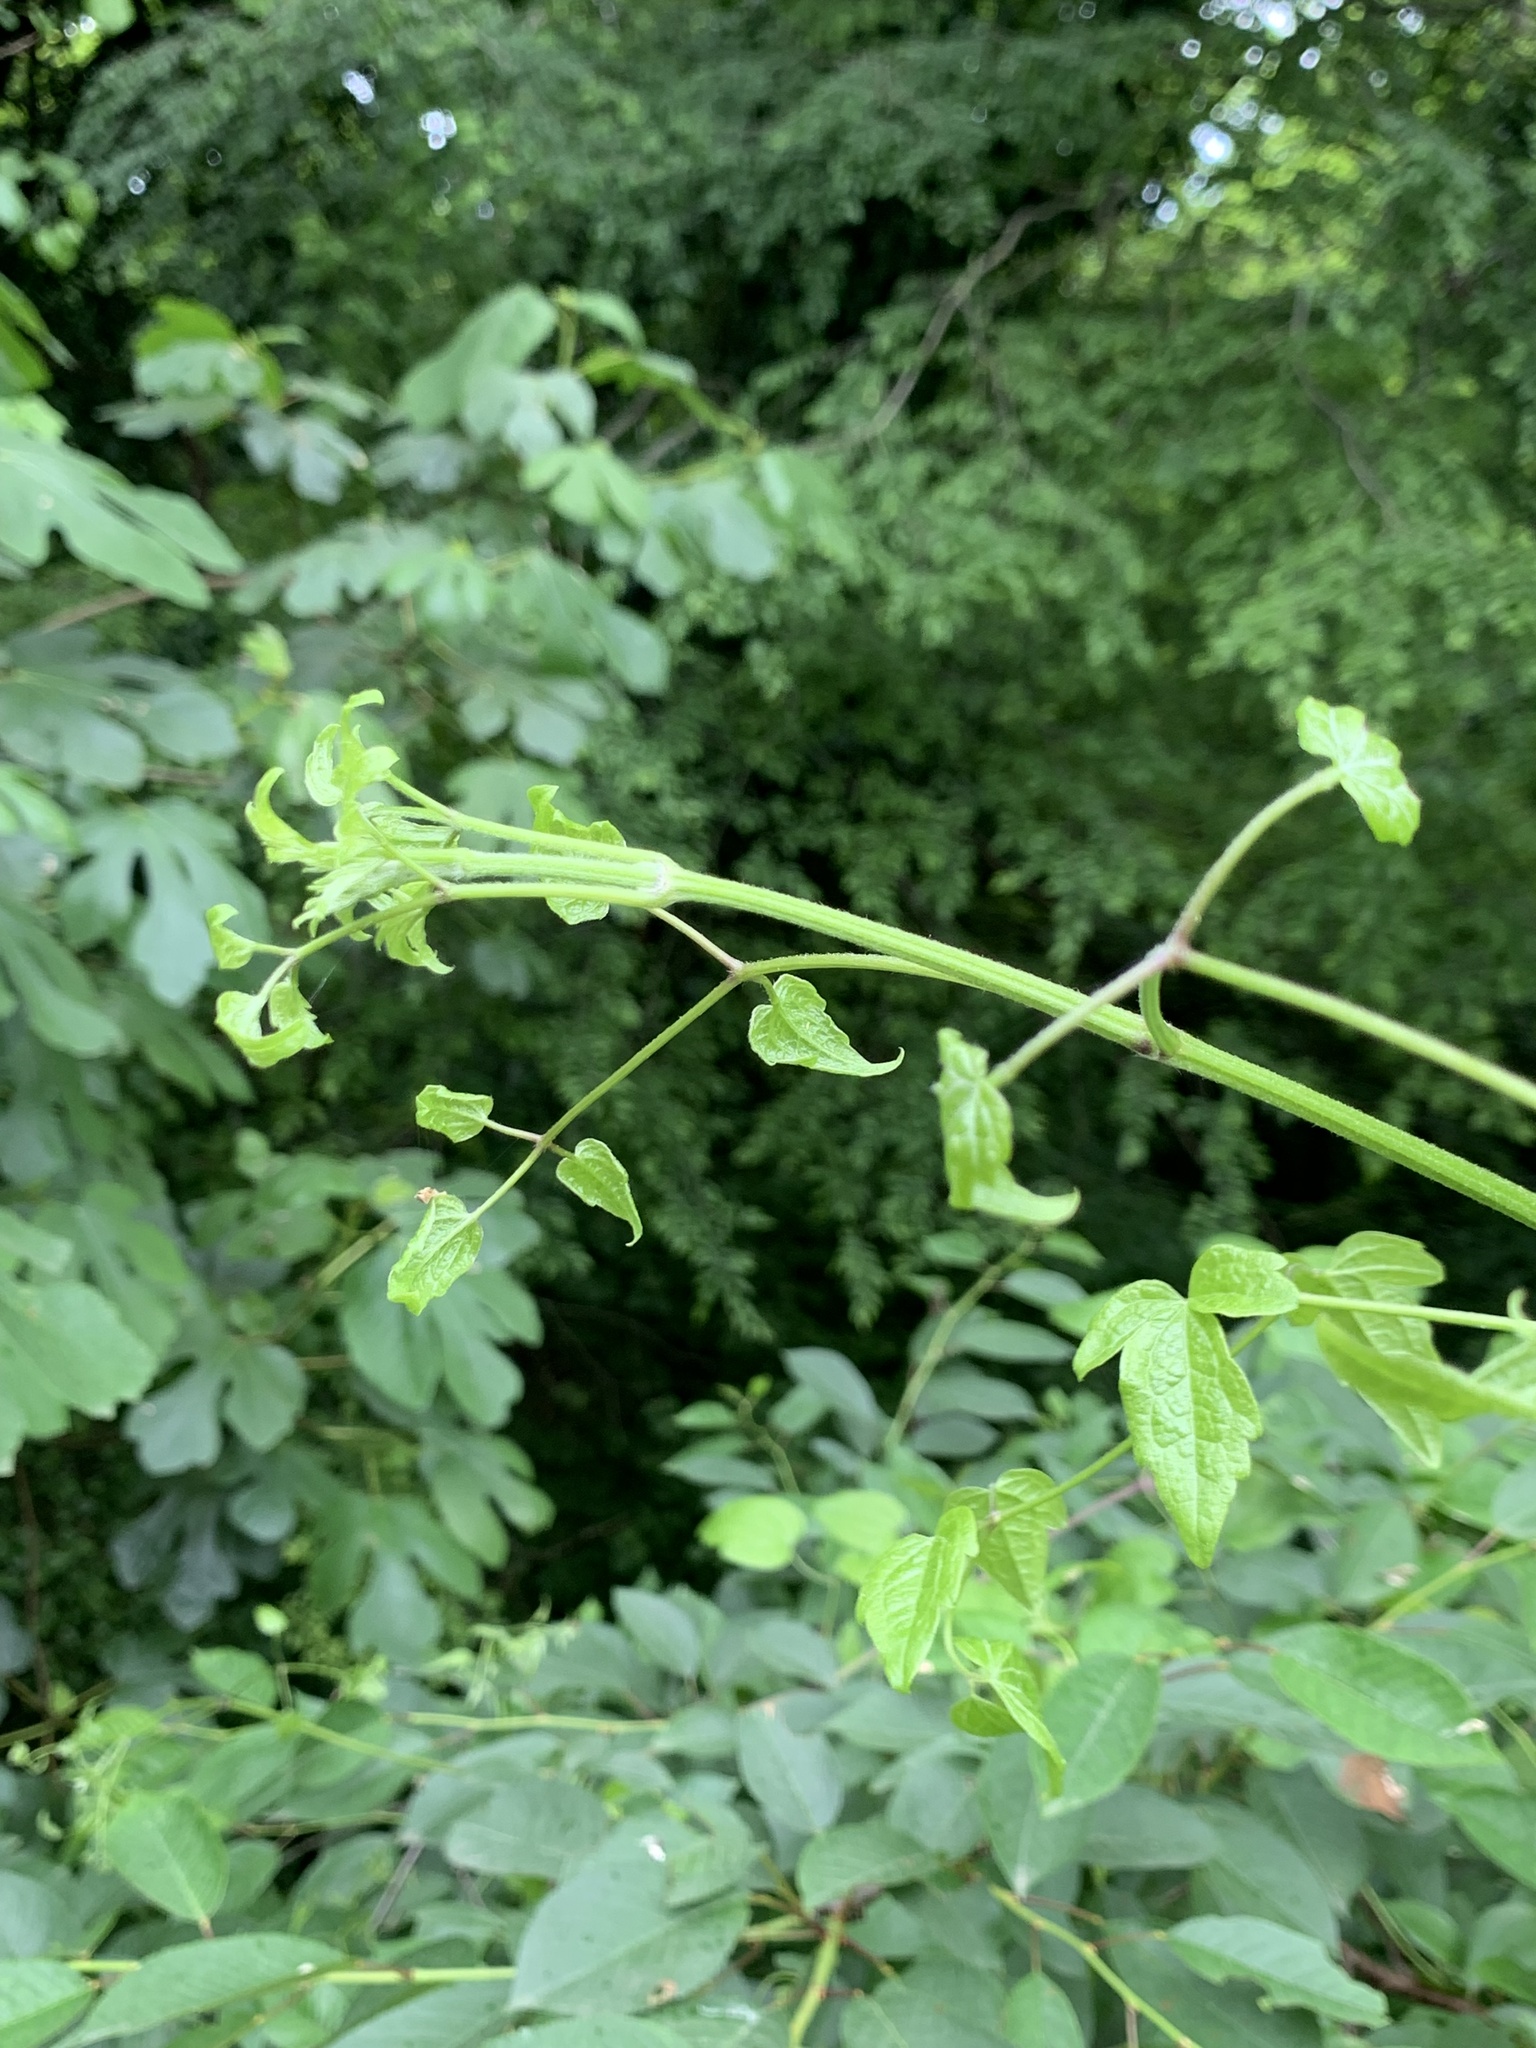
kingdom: Plantae
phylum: Tracheophyta
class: Magnoliopsida
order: Ranunculales
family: Ranunculaceae
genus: Clematis
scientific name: Clematis vitalba
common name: Evergreen clematis
